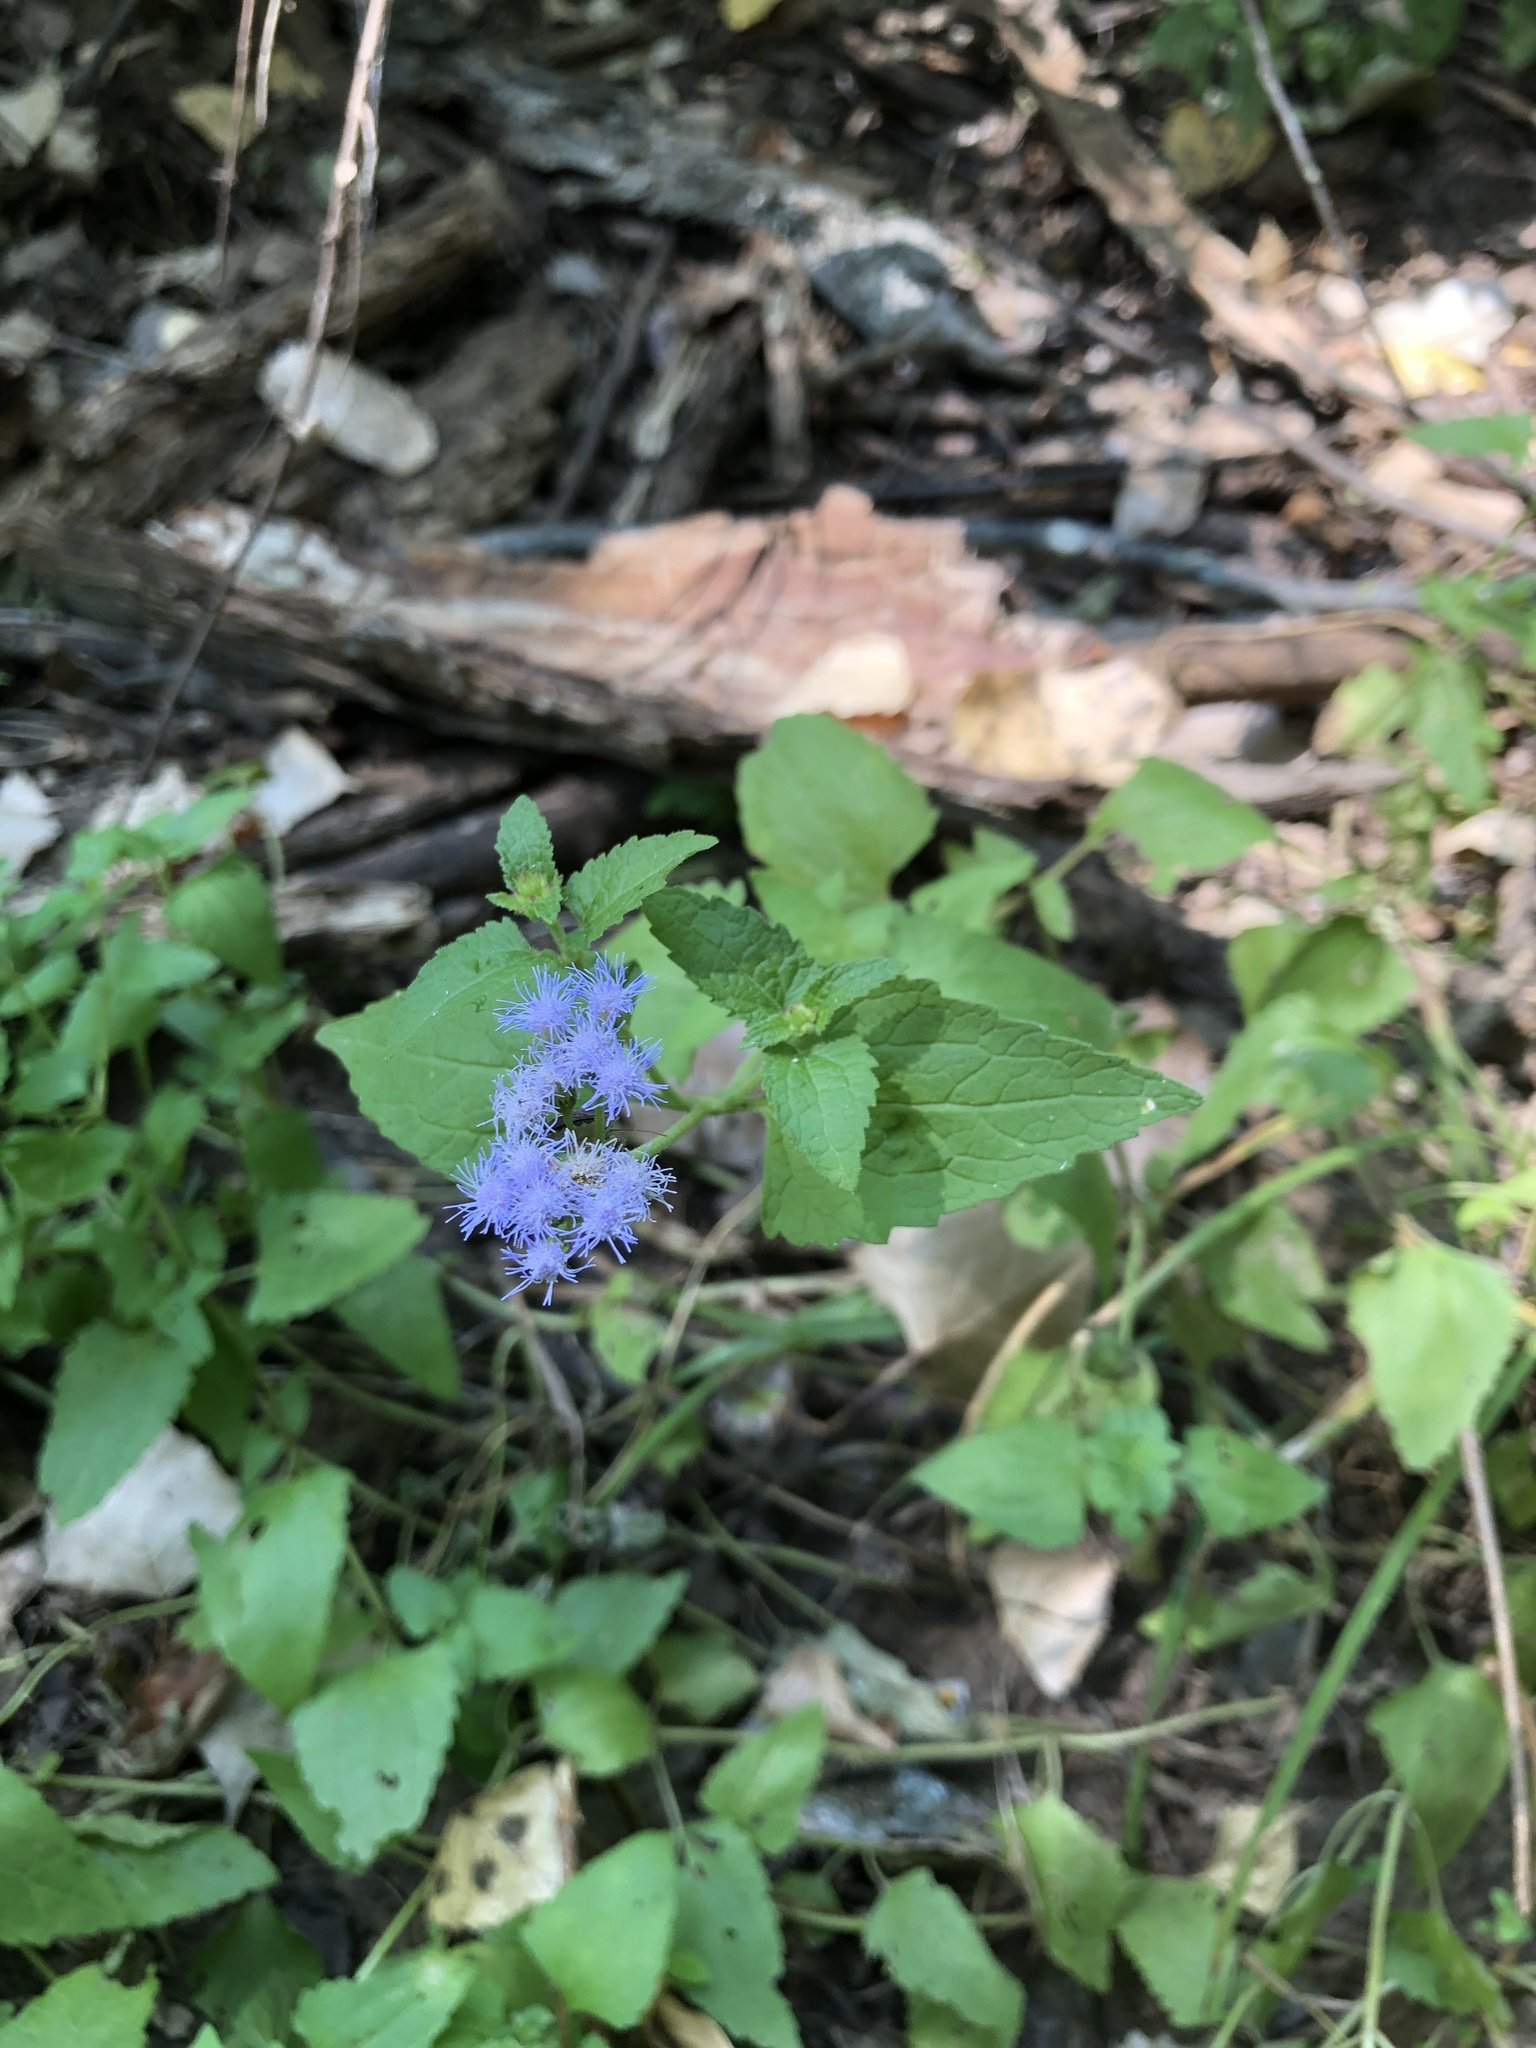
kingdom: Plantae
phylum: Tracheophyta
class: Magnoliopsida
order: Asterales
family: Asteraceae
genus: Conoclinium
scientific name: Conoclinium coelestinum
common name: Blue mistflower
